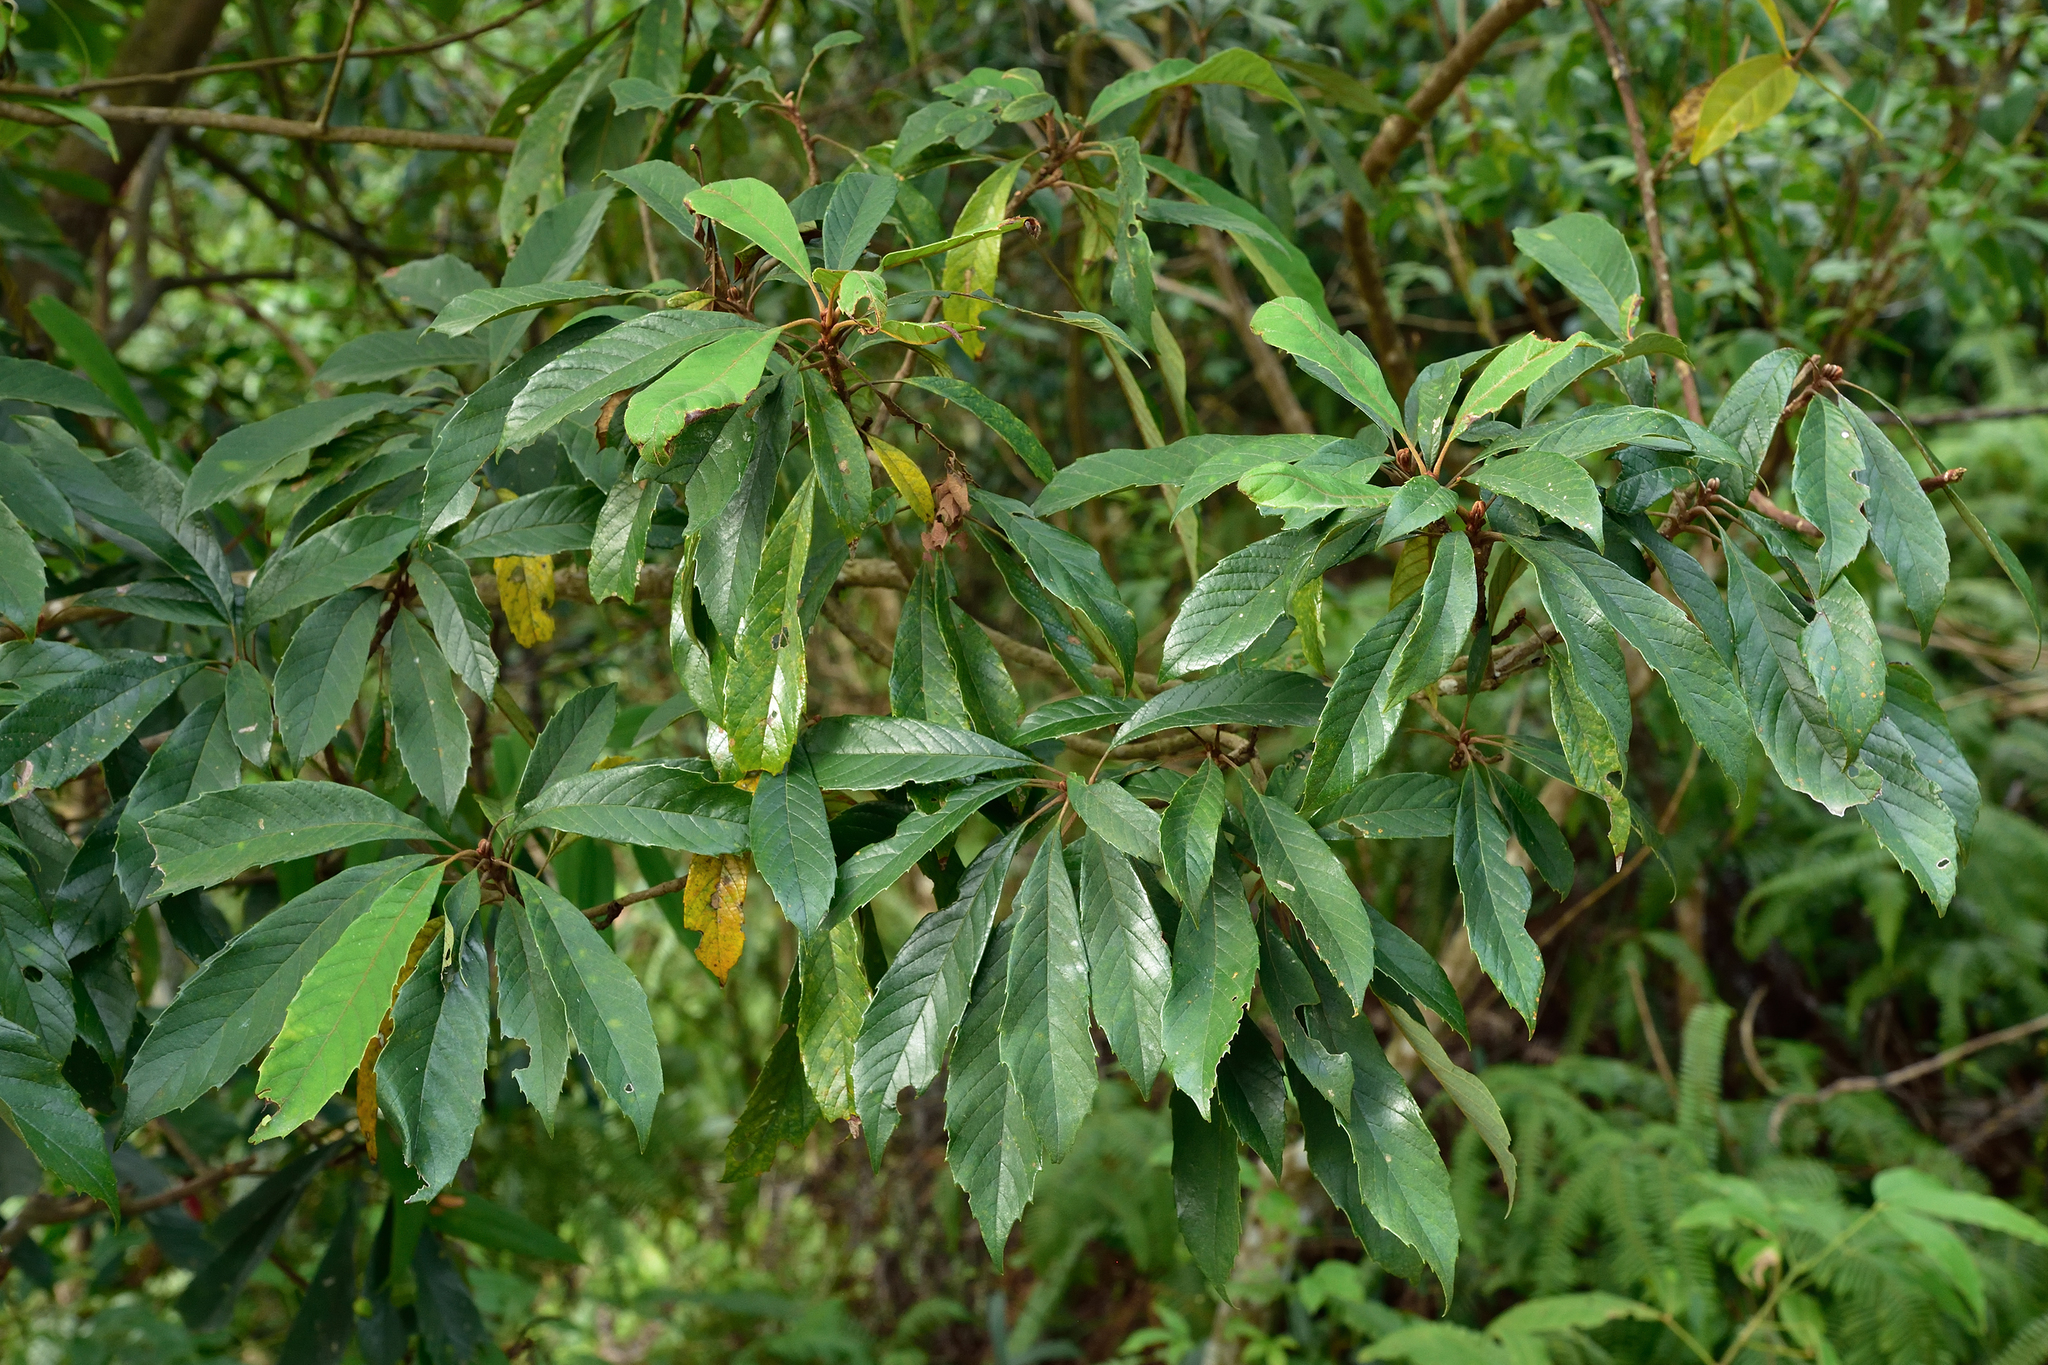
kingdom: Plantae
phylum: Tracheophyta
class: Magnoliopsida
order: Proteales
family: Sabiaceae
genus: Meliosma
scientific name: Meliosma rigida
